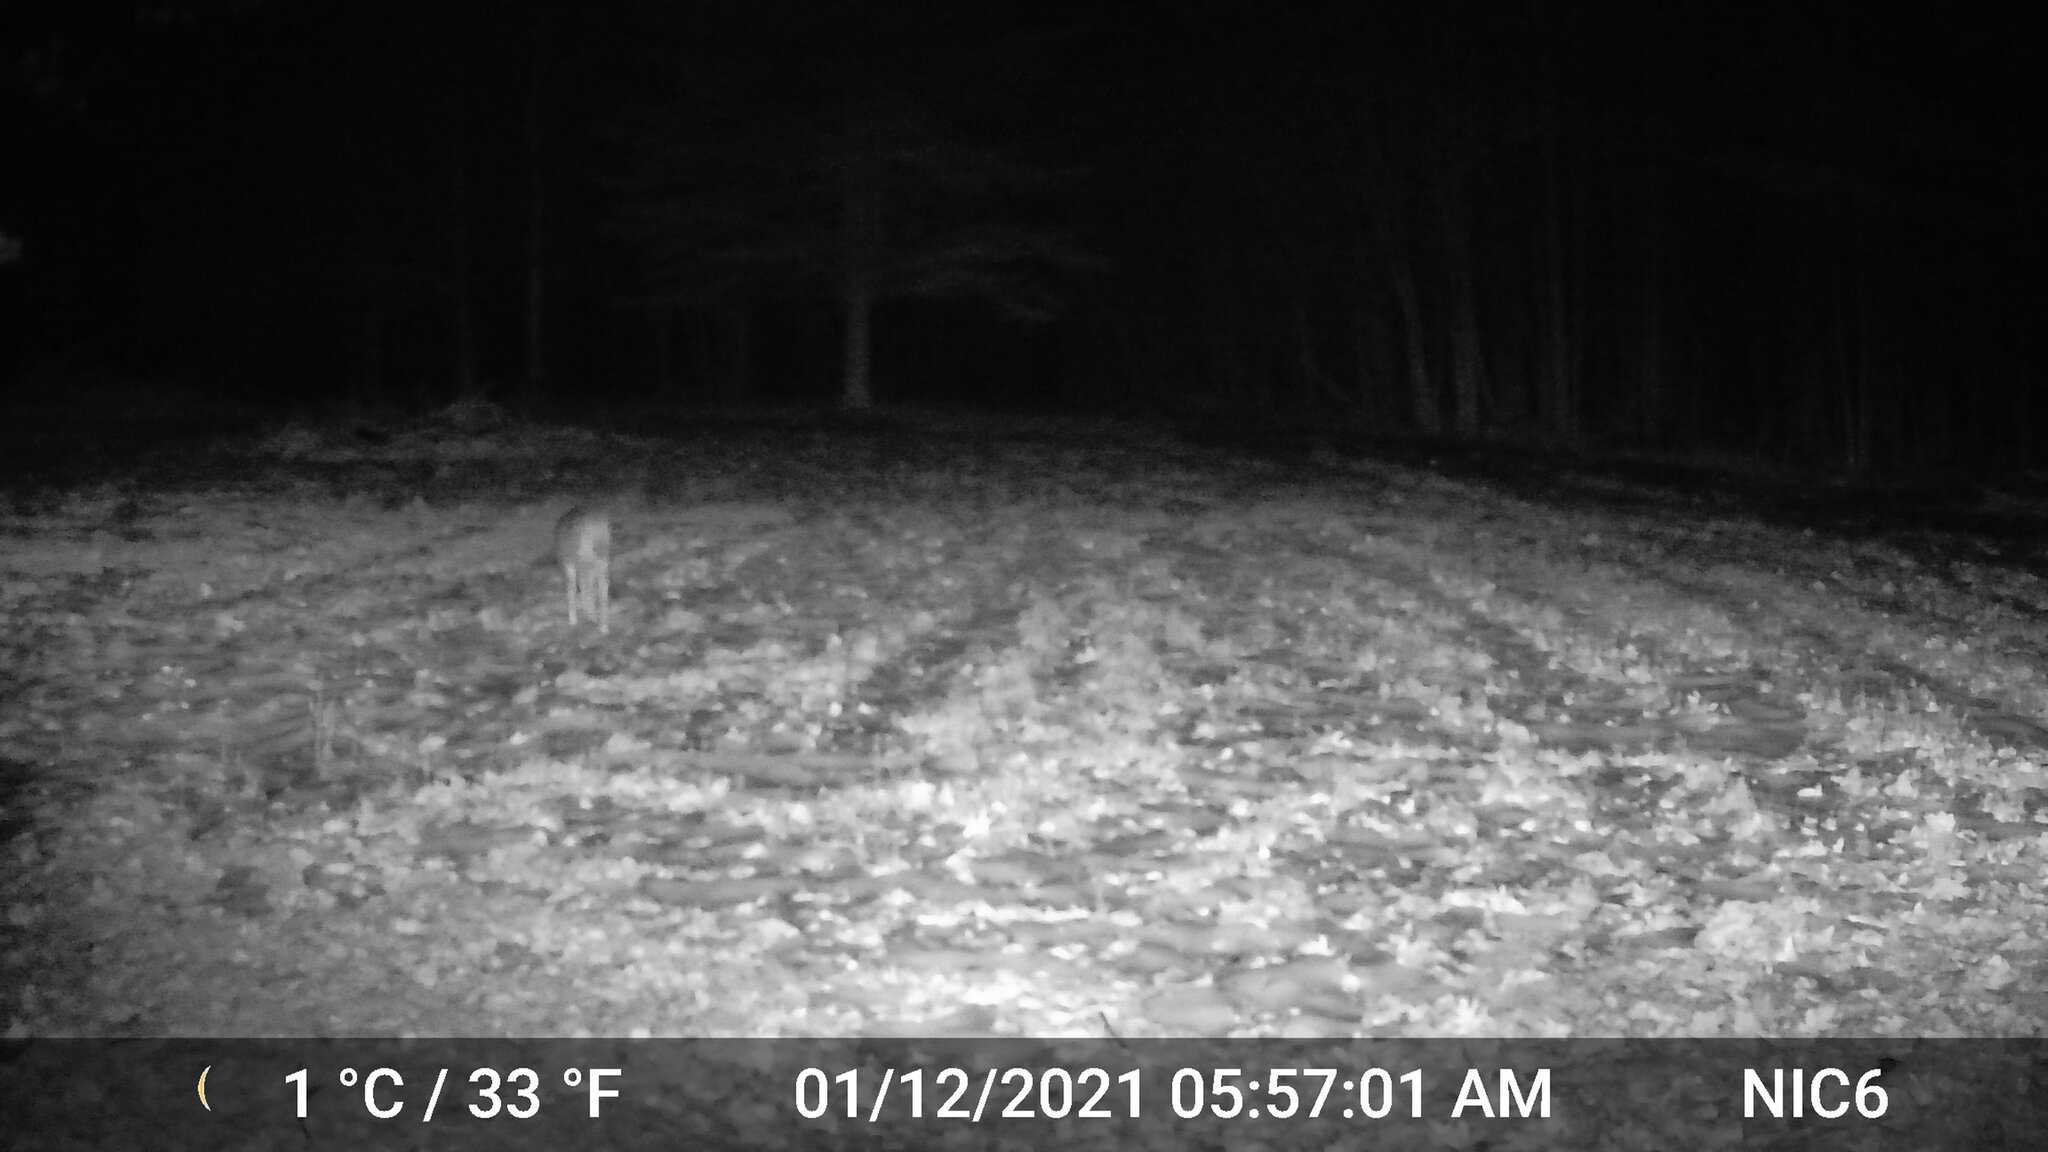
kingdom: Animalia
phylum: Chordata
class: Mammalia
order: Artiodactyla
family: Cervidae
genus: Odocoileus
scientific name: Odocoileus virginianus
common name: White-tailed deer
